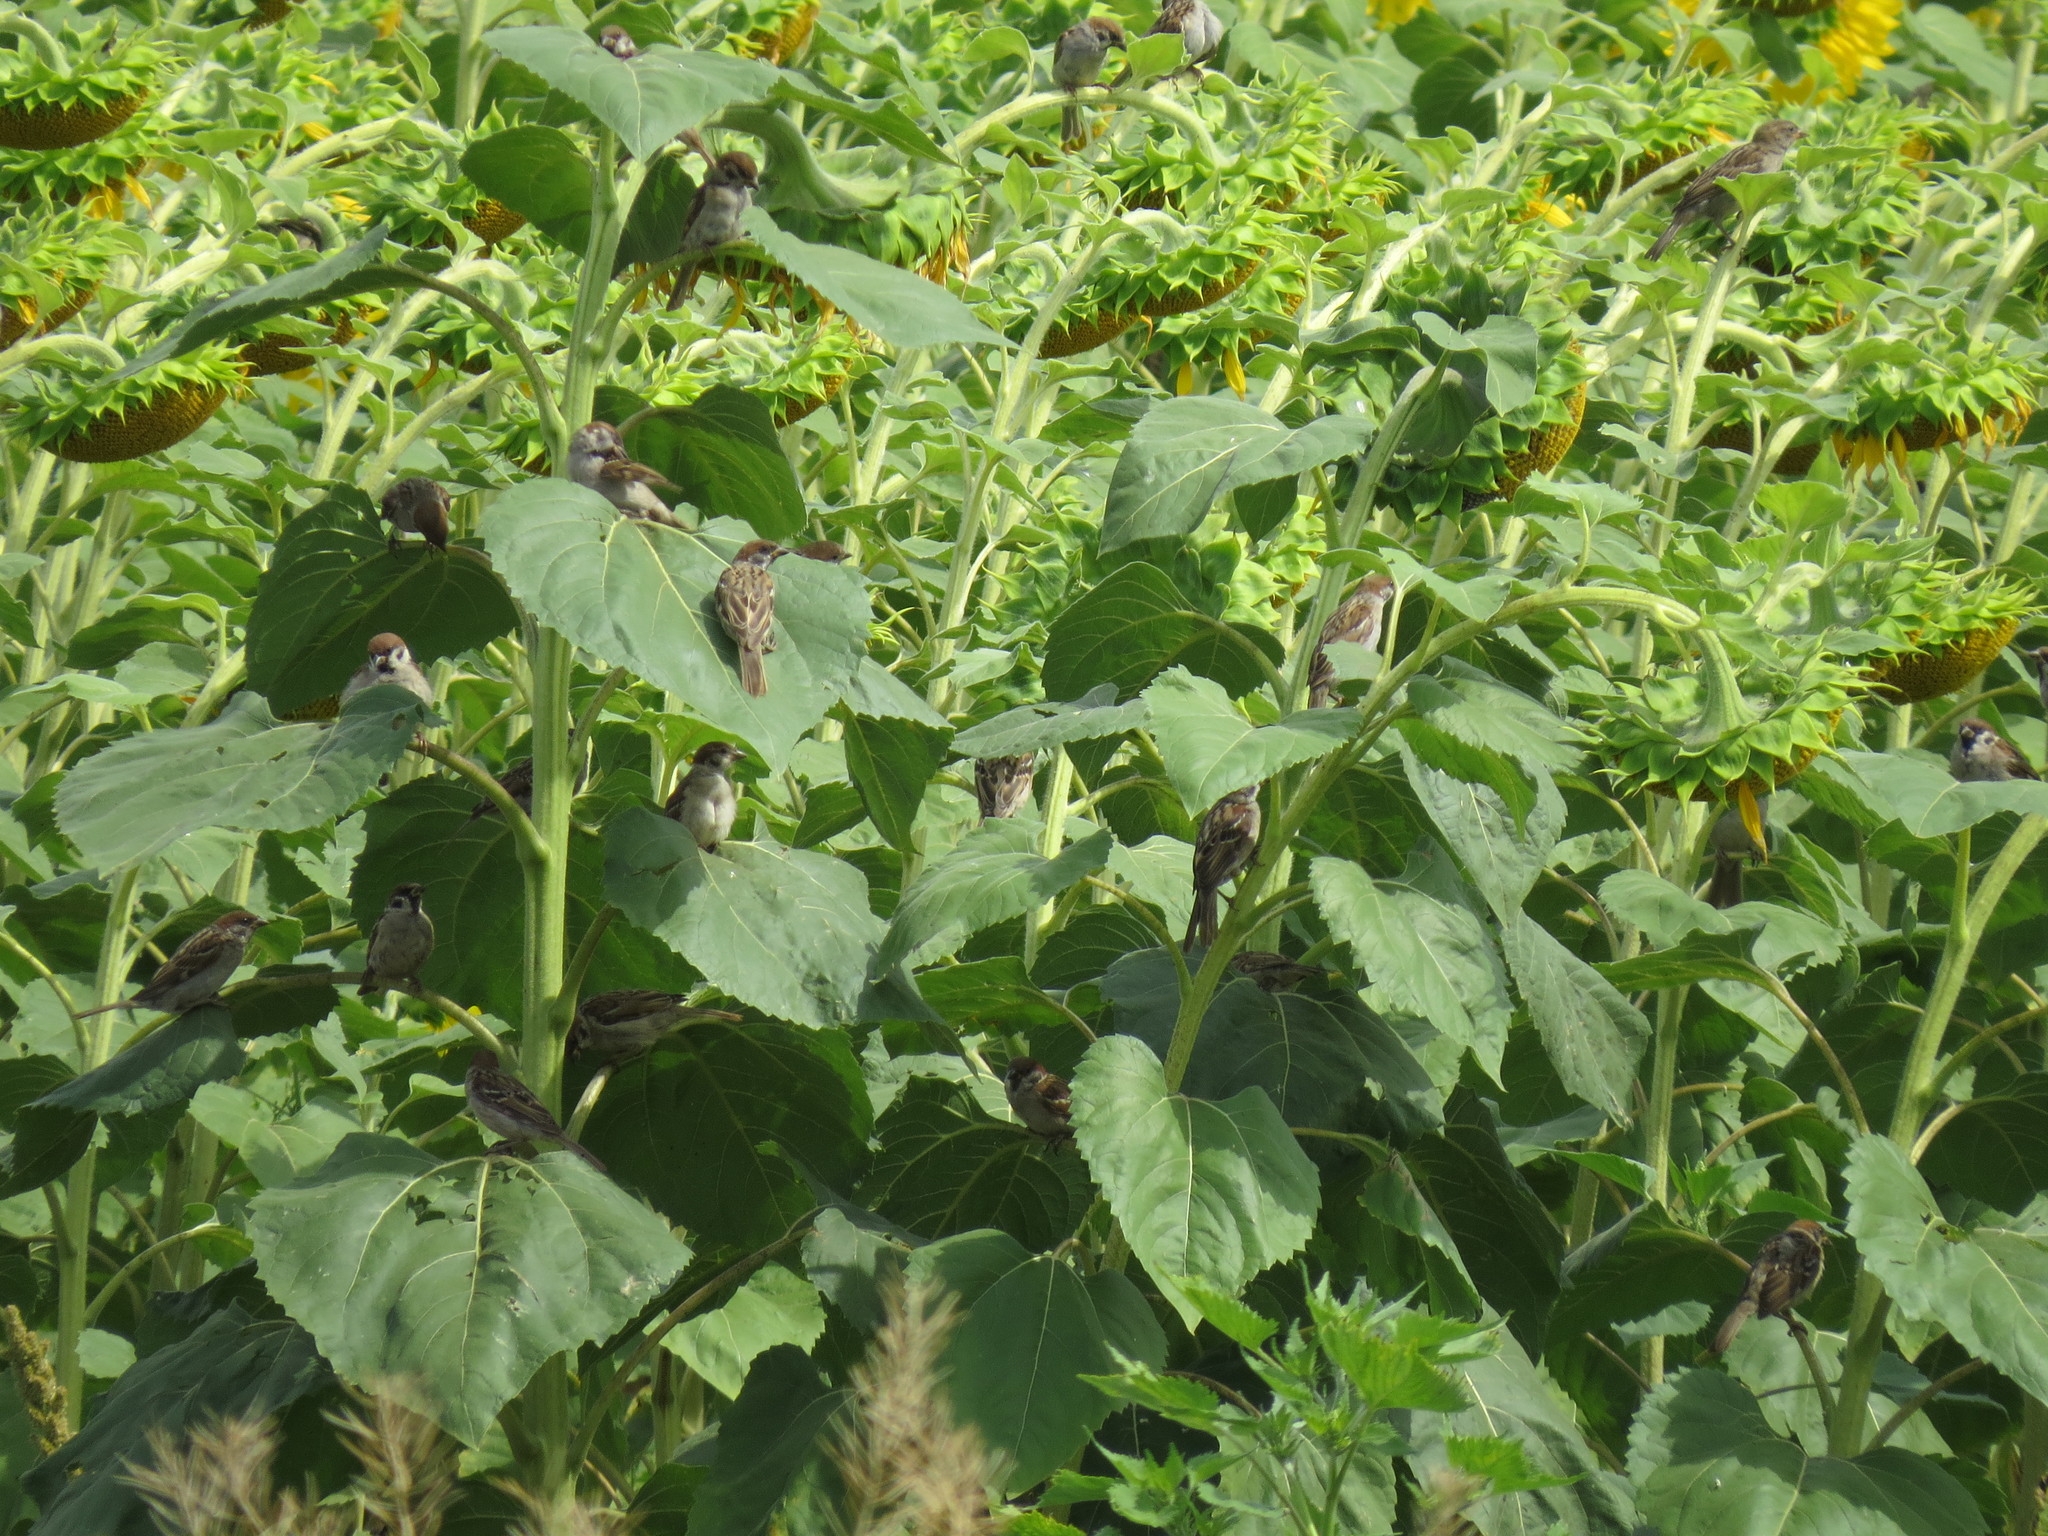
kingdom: Plantae
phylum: Tracheophyta
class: Magnoliopsida
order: Asterales
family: Asteraceae
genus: Helianthus
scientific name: Helianthus annuus
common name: Sunflower
